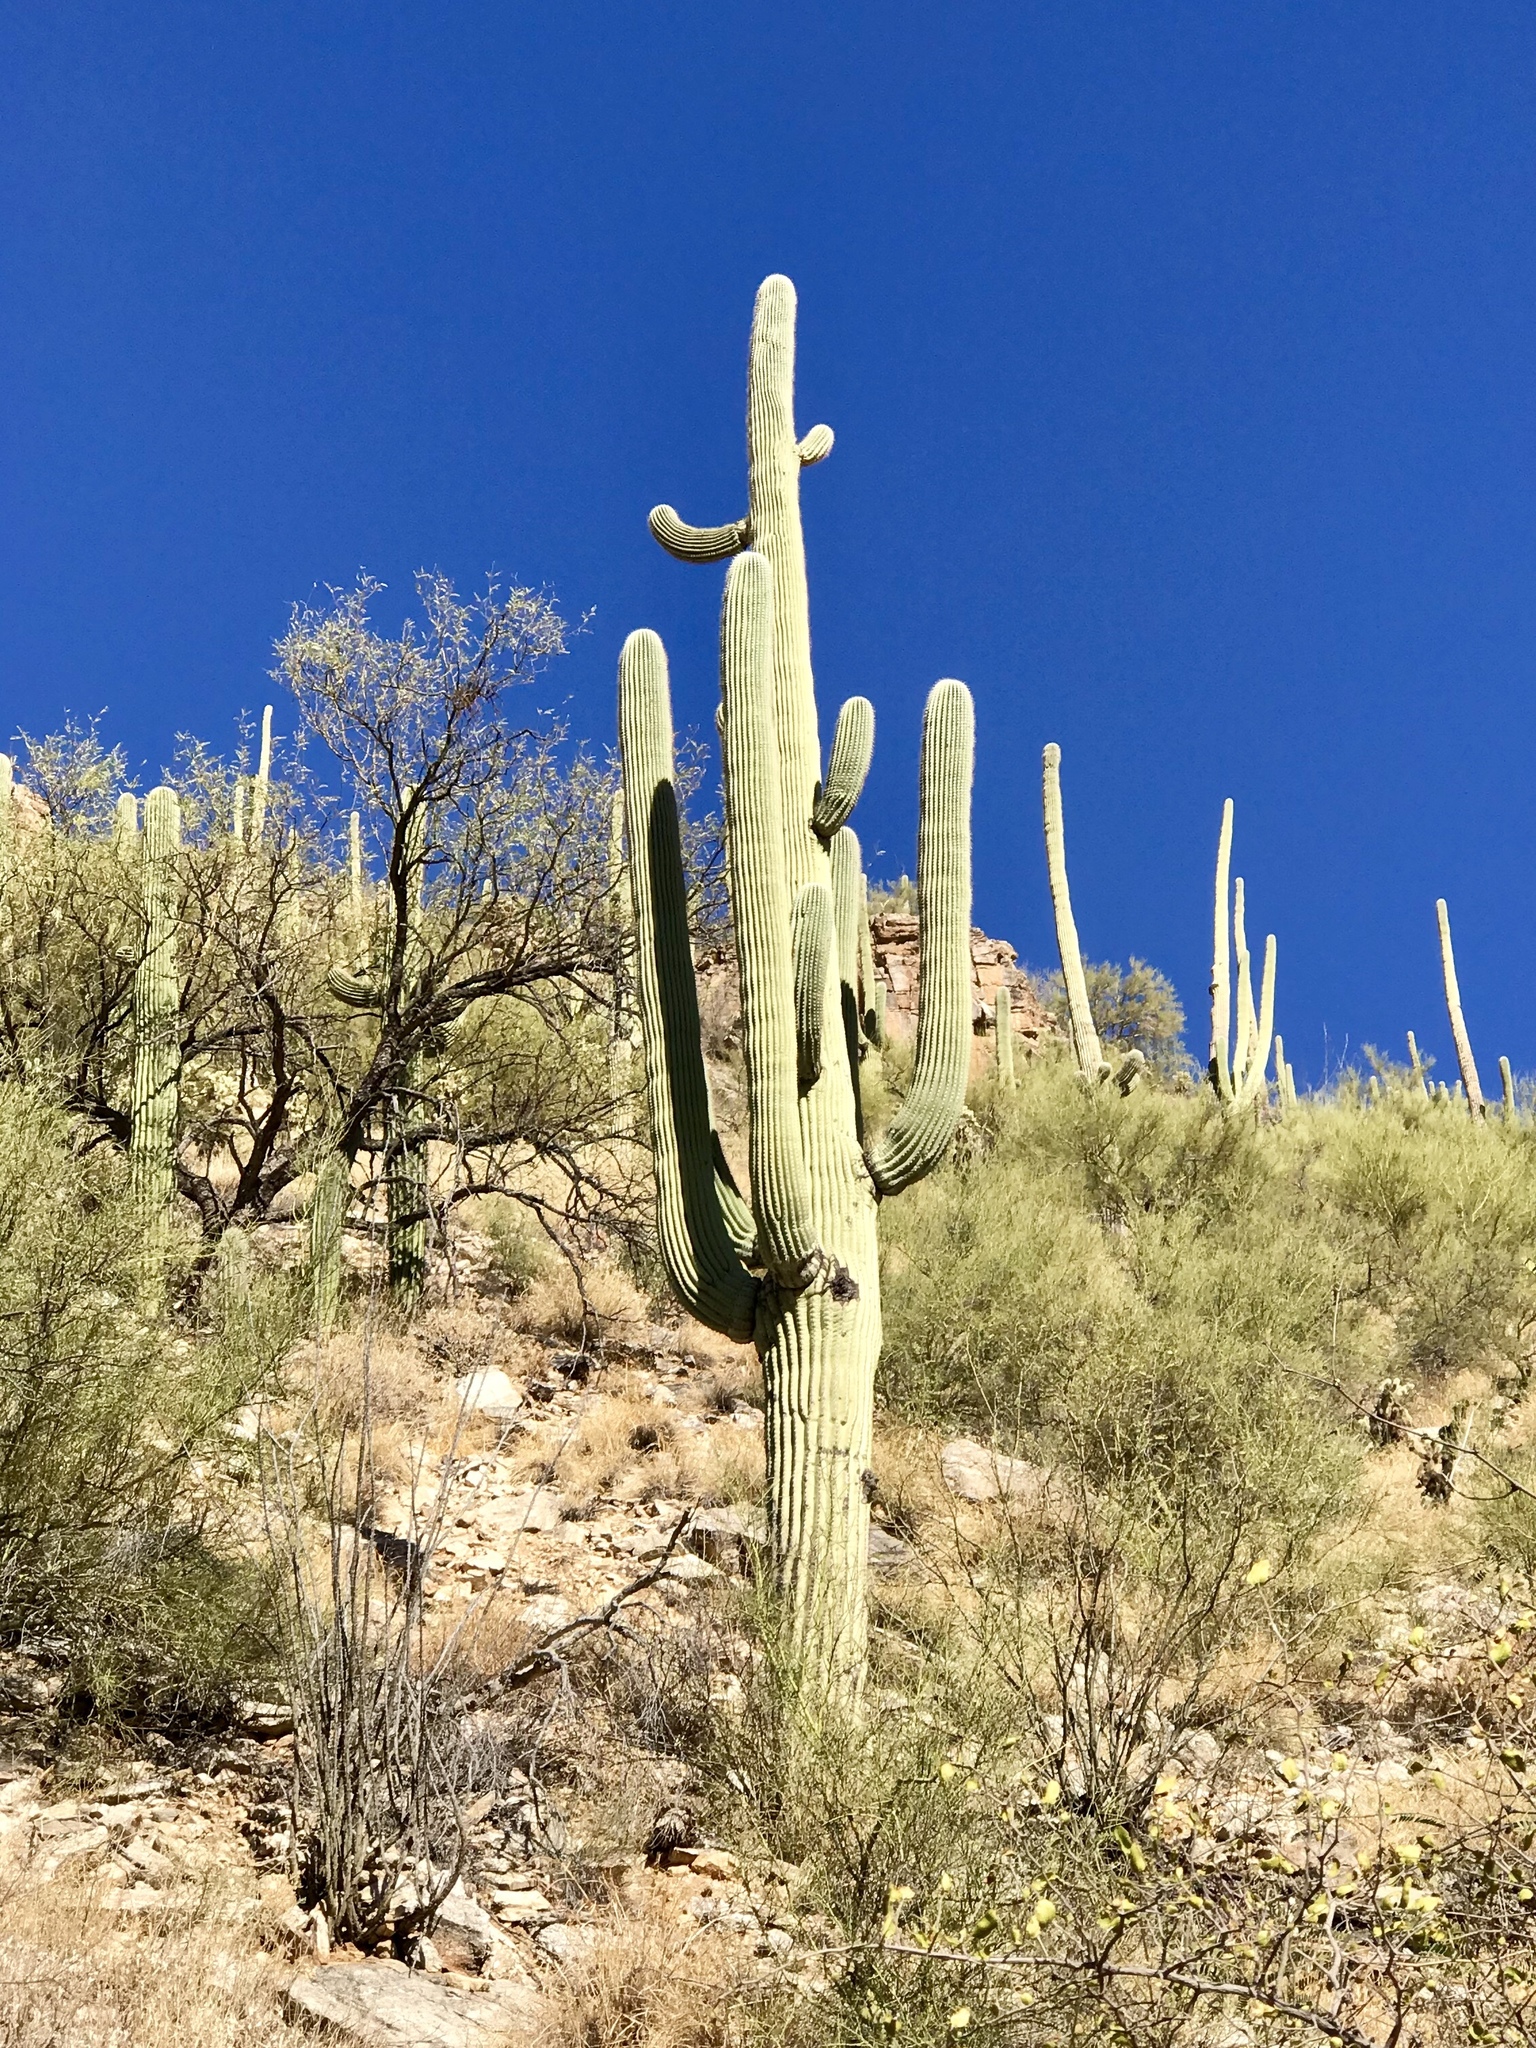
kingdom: Plantae
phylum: Tracheophyta
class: Magnoliopsida
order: Caryophyllales
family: Cactaceae
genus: Carnegiea
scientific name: Carnegiea gigantea
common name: Saguaro
